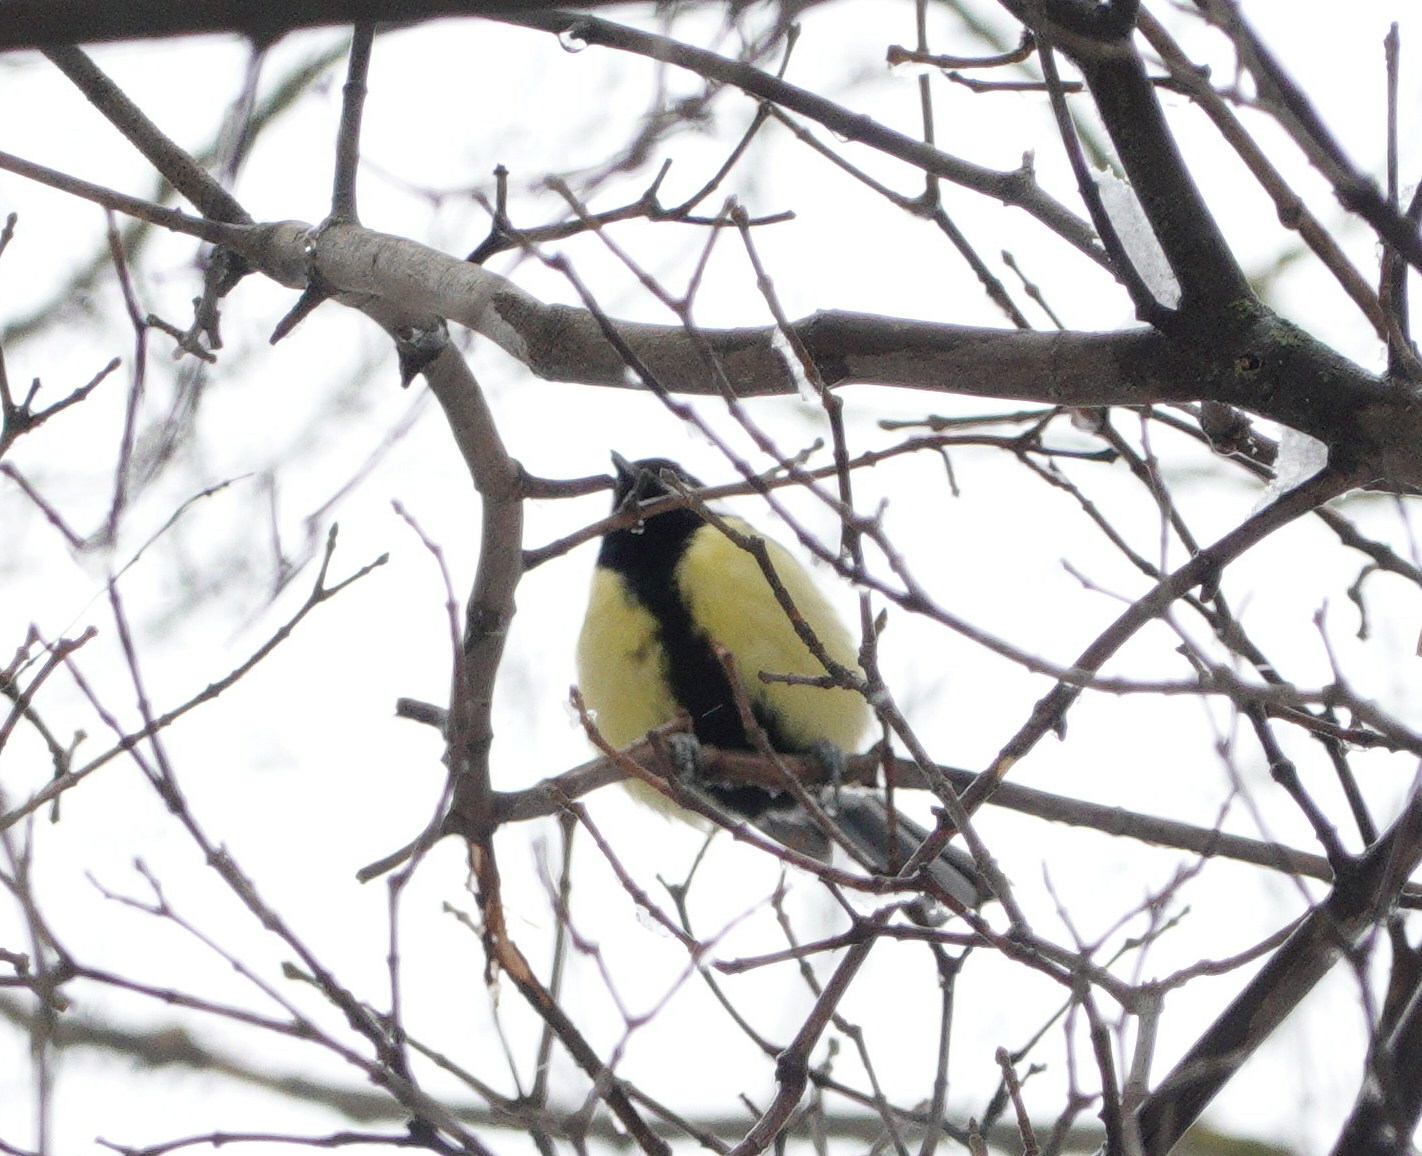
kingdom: Animalia
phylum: Chordata
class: Aves
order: Passeriformes
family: Paridae
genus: Parus
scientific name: Parus major
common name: Great tit
